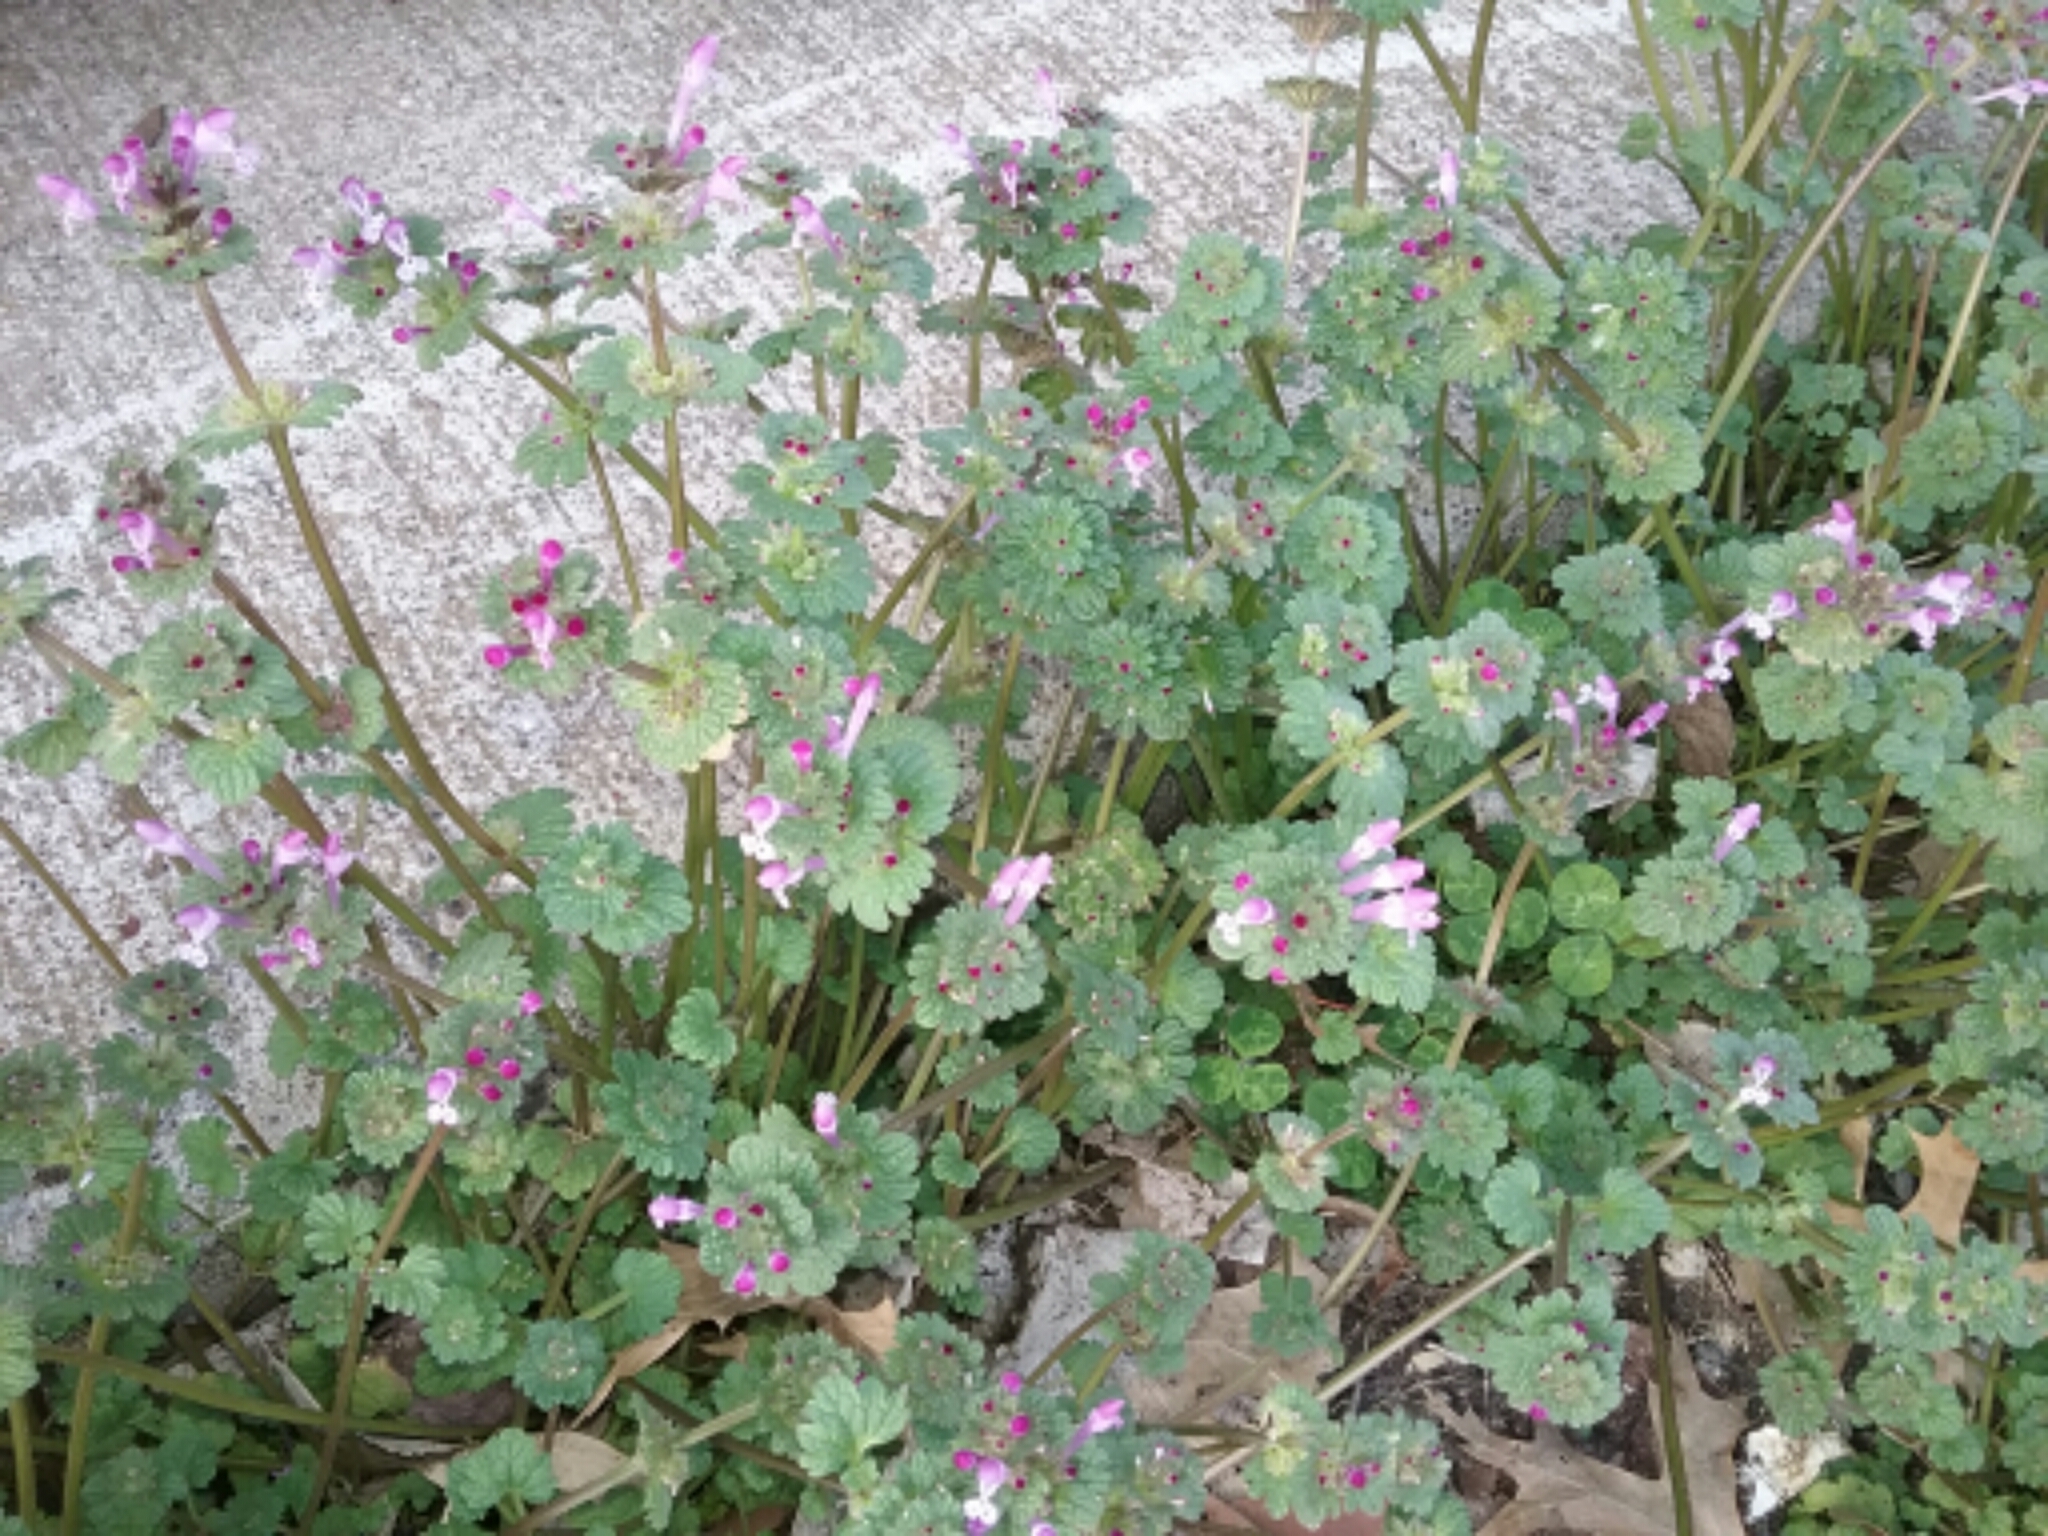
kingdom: Plantae
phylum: Tracheophyta
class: Magnoliopsida
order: Lamiales
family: Lamiaceae
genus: Lamium
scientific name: Lamium amplexicaule
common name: Henbit dead-nettle
